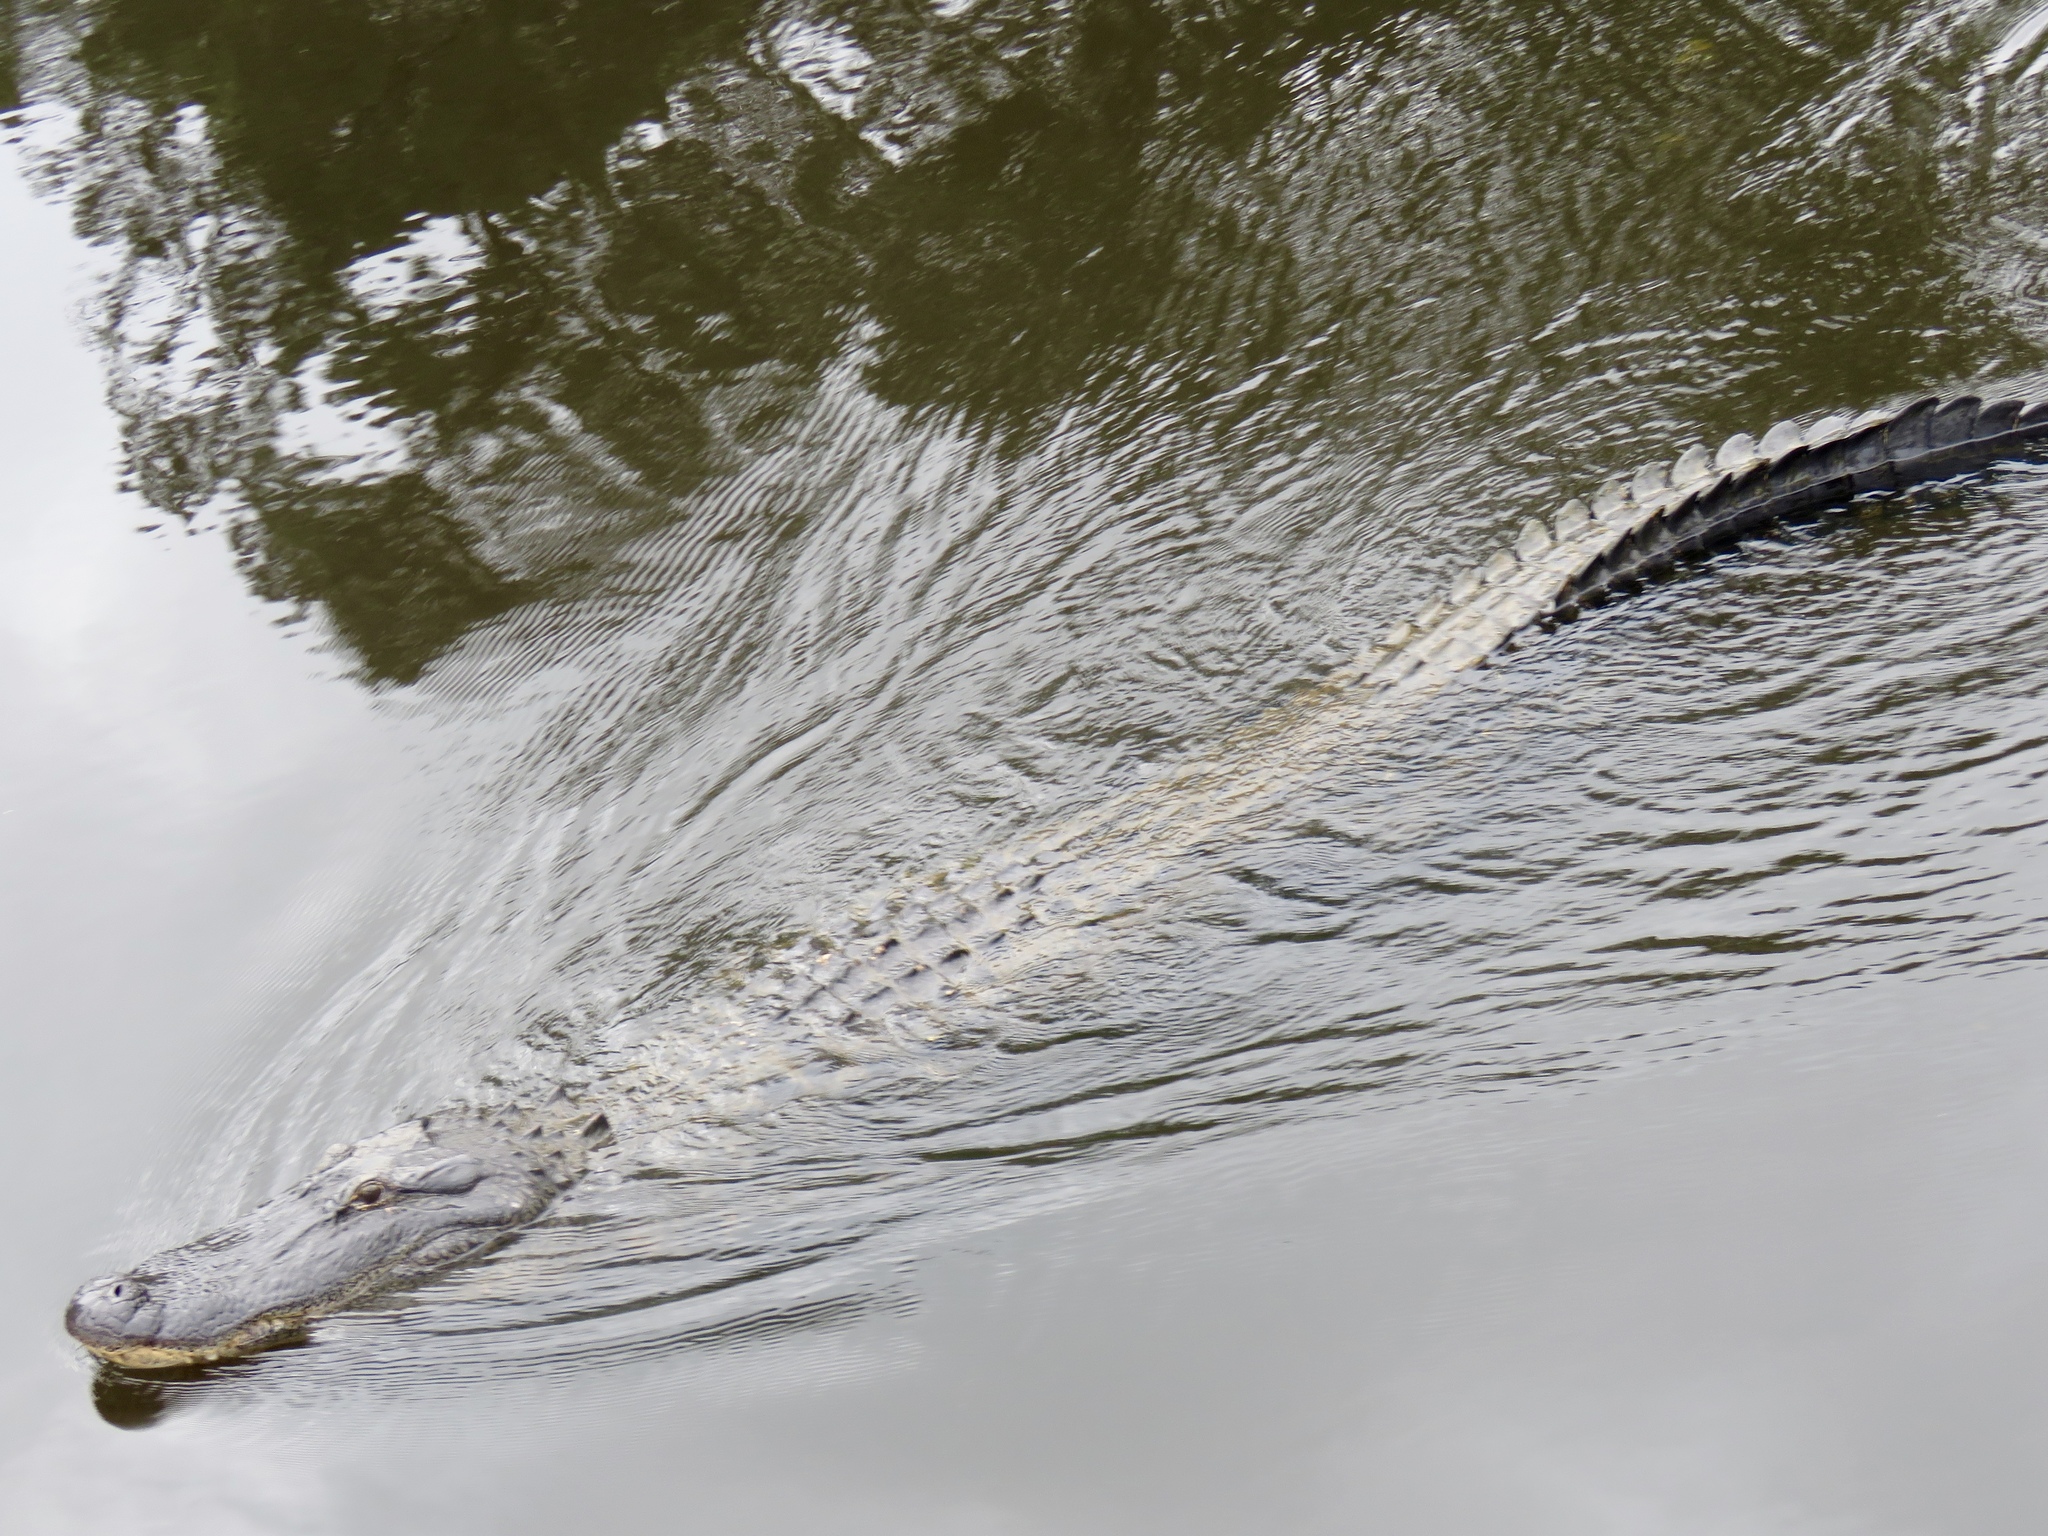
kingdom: Animalia
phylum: Chordata
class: Crocodylia
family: Alligatoridae
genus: Alligator
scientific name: Alligator mississippiensis
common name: American alligator
